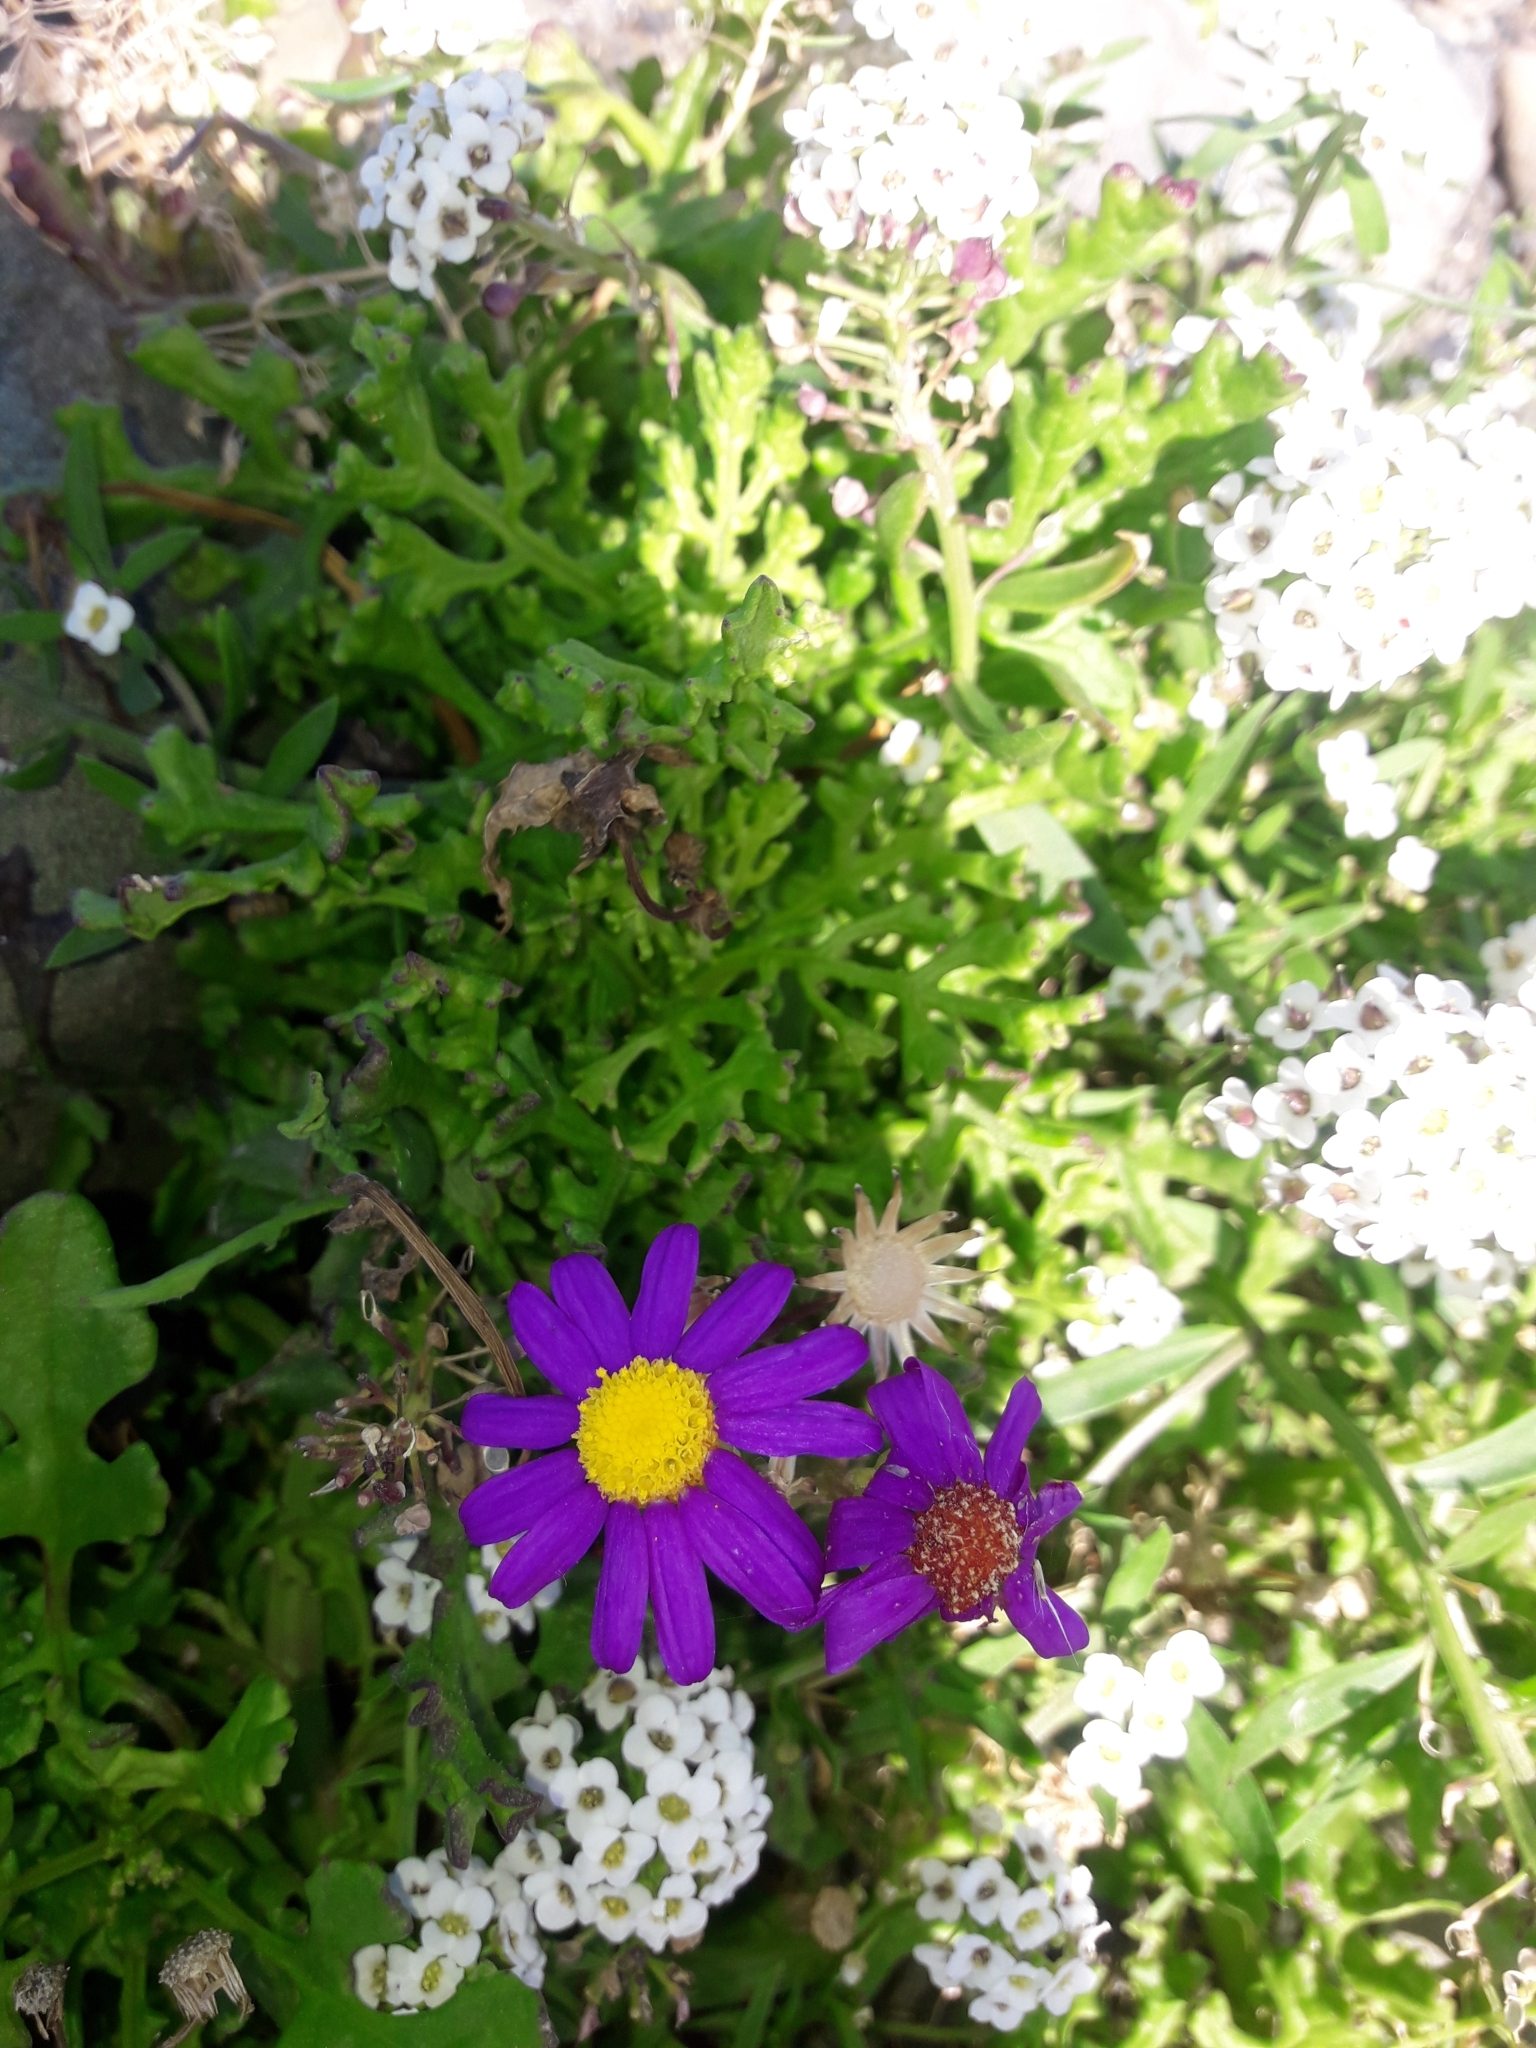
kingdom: Plantae
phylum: Tracheophyta
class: Magnoliopsida
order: Asterales
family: Asteraceae
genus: Senecio
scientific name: Senecio elegans
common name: Purple groundsel
